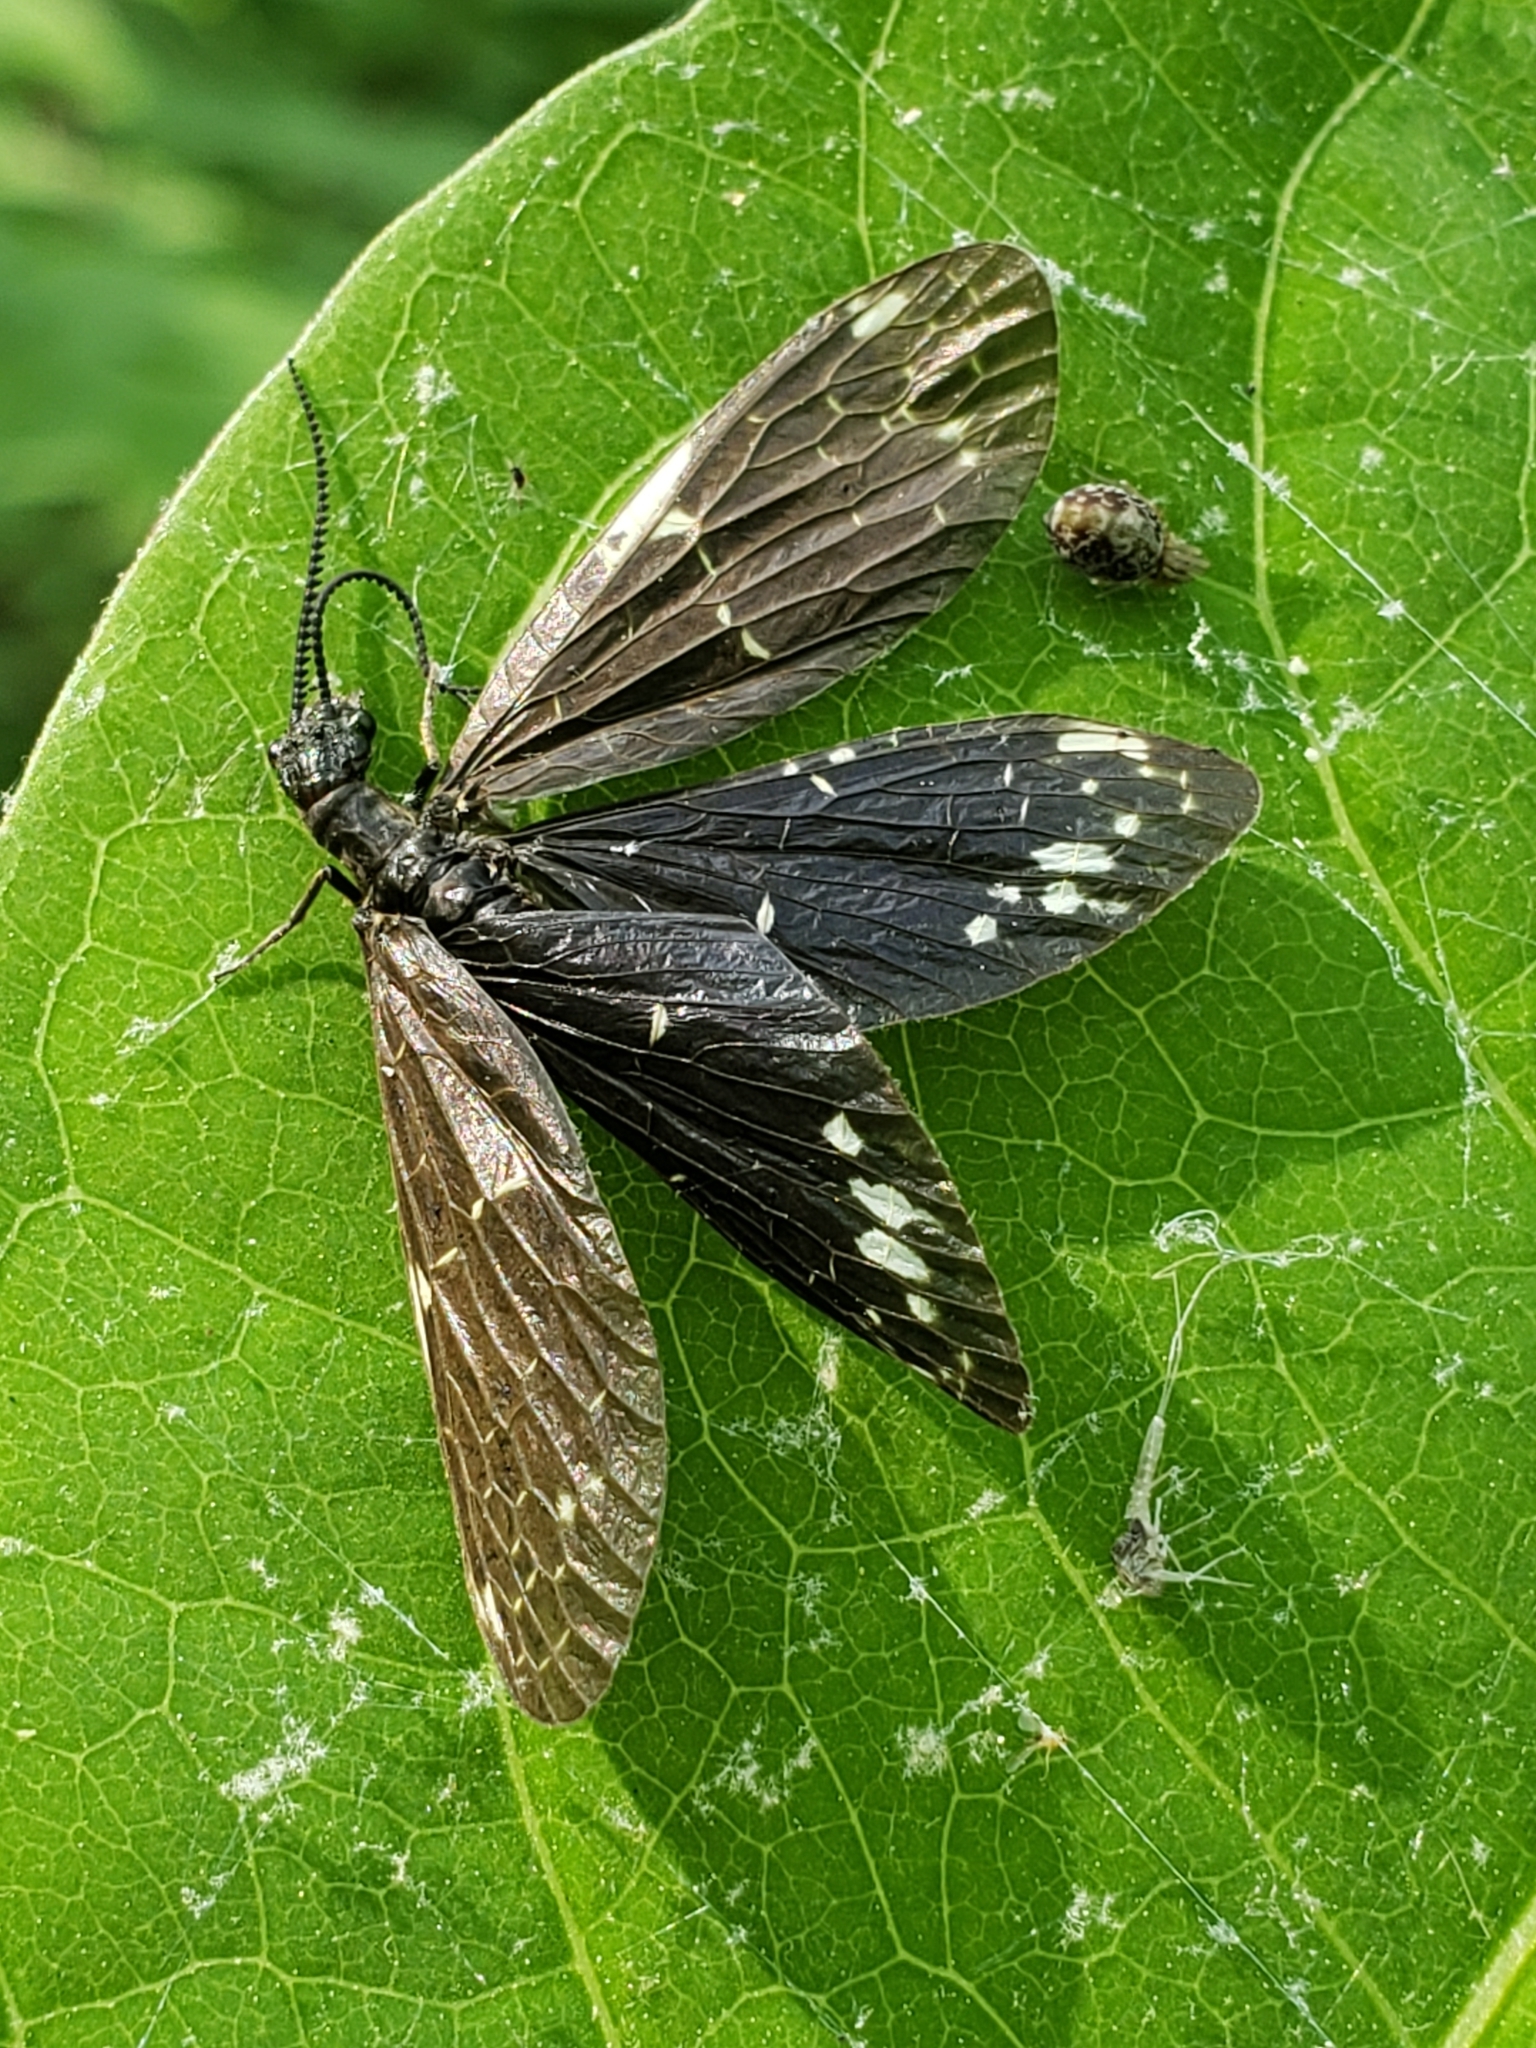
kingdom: Animalia
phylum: Arthropoda
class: Insecta
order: Megaloptera
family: Corydalidae
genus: Nigronia
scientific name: Nigronia serricornis
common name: Serrate dark fishfly
